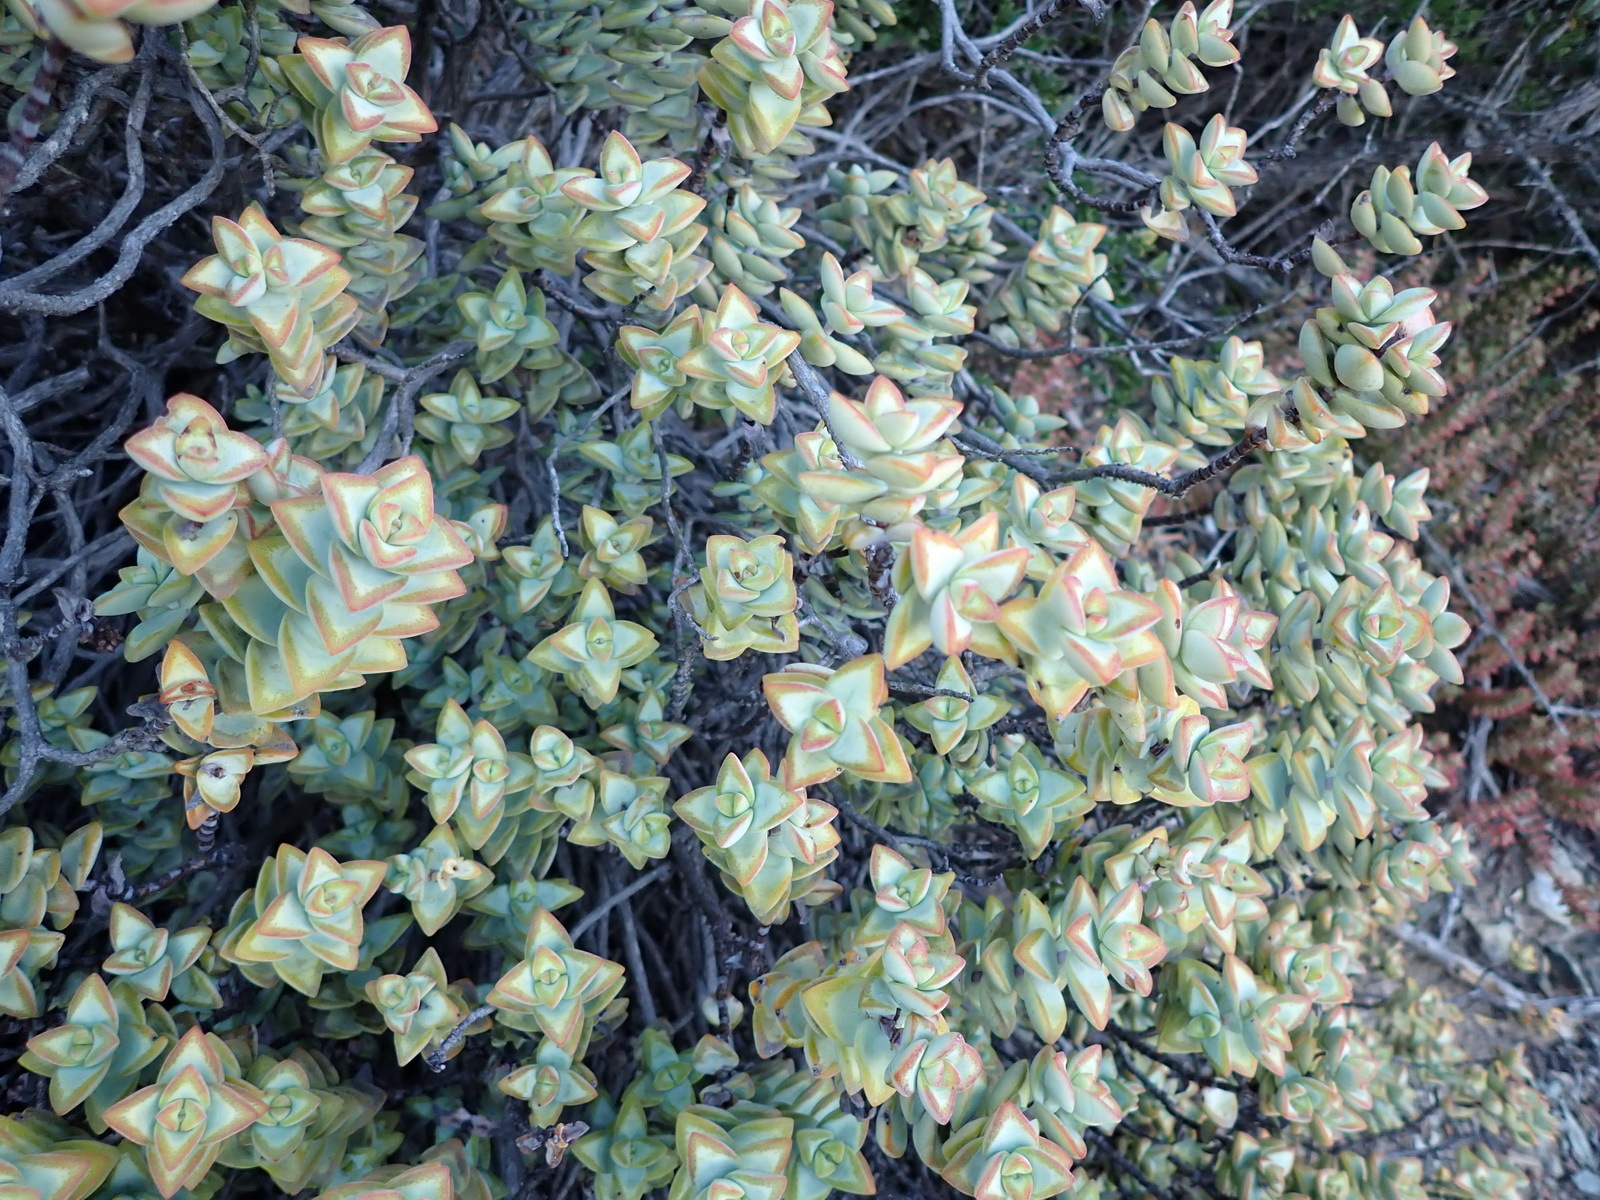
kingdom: Plantae
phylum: Tracheophyta
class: Magnoliopsida
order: Saxifragales
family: Crassulaceae
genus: Crassula
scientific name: Crassula rupestris
